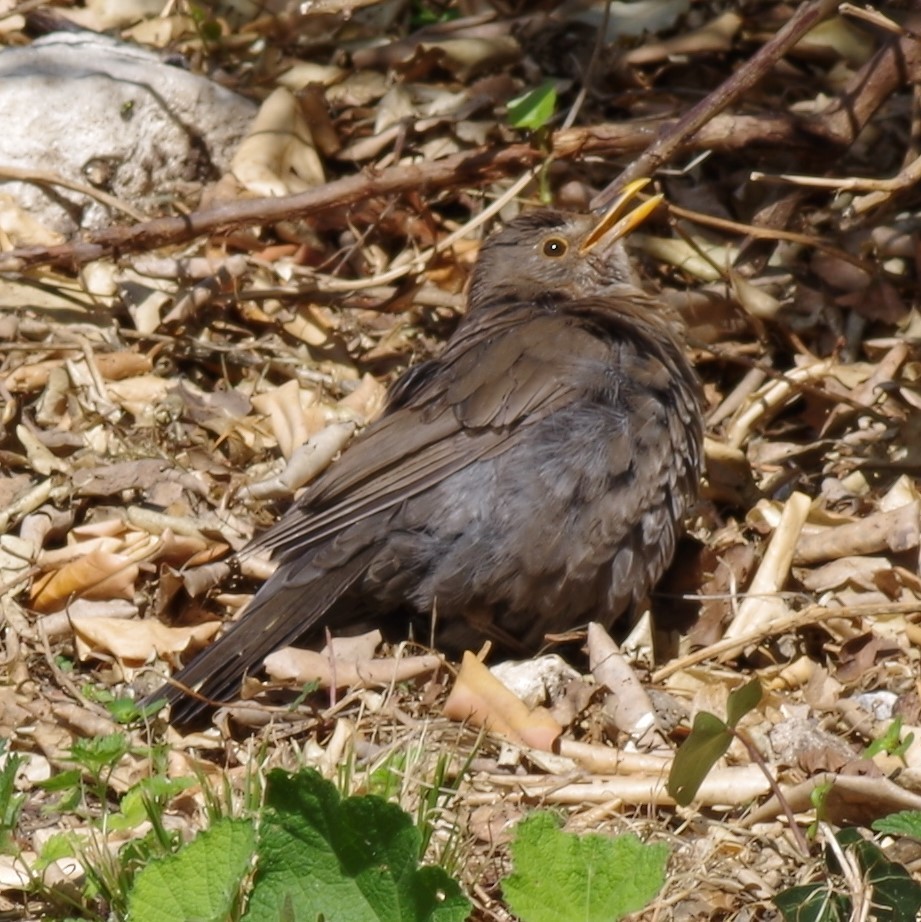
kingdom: Animalia
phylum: Chordata
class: Aves
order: Passeriformes
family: Turdidae
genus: Turdus
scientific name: Turdus merula
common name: Common blackbird
